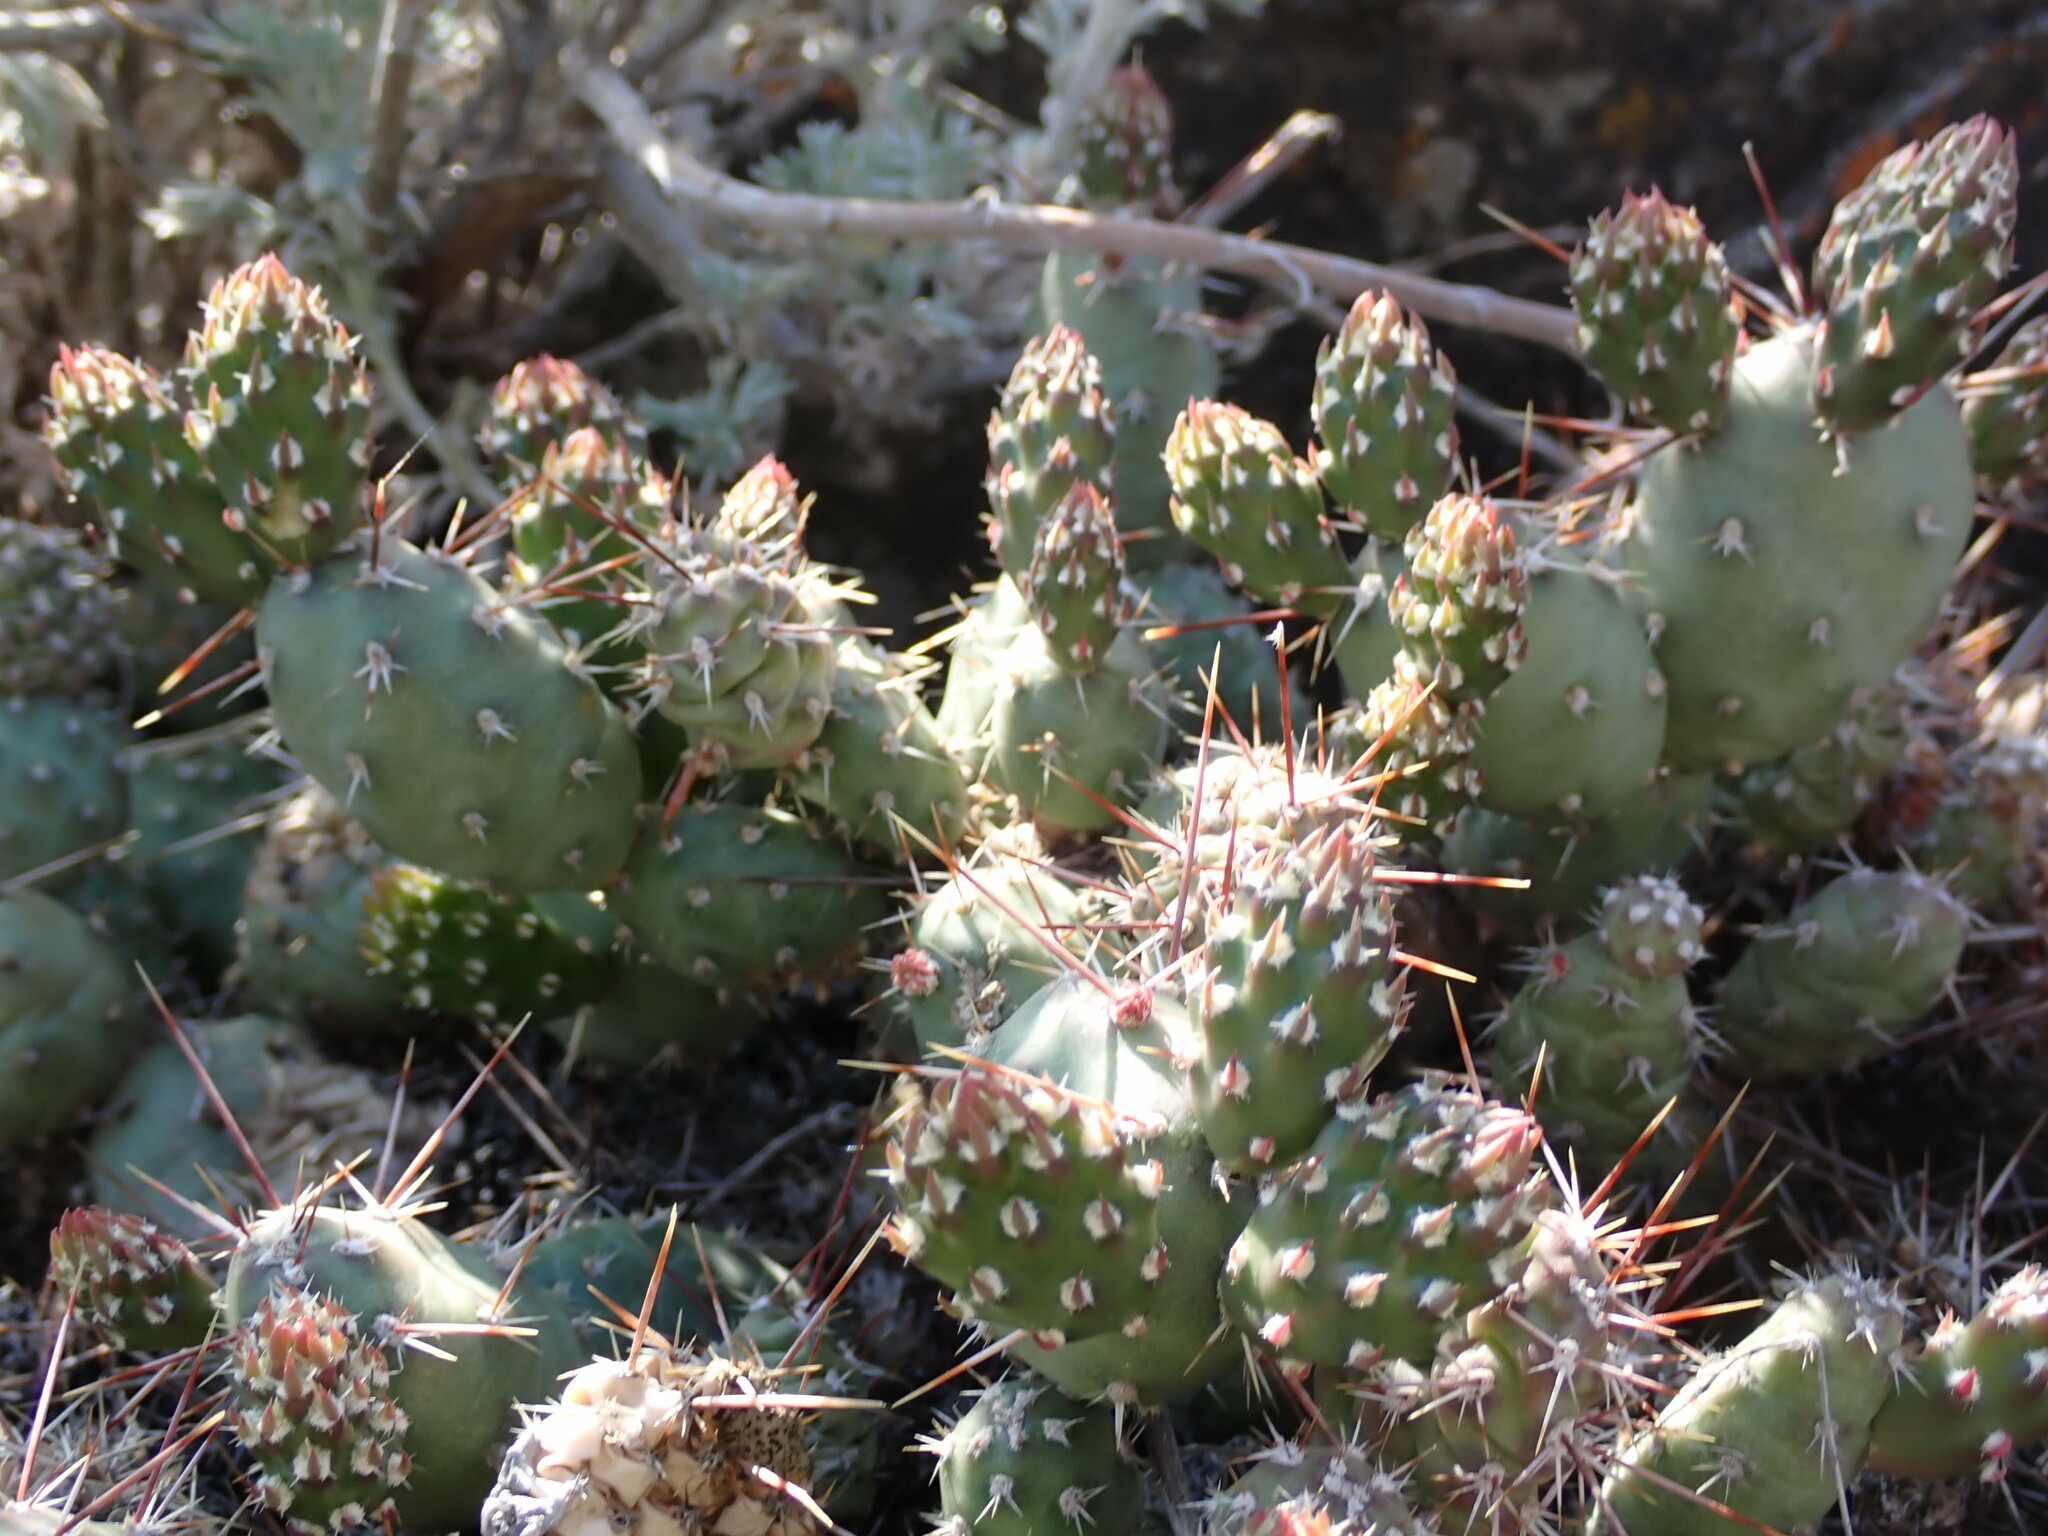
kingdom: Plantae
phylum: Tracheophyta
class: Magnoliopsida
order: Caryophyllales
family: Cactaceae
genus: Opuntia
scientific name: Opuntia fragilis
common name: Brittle cactus
